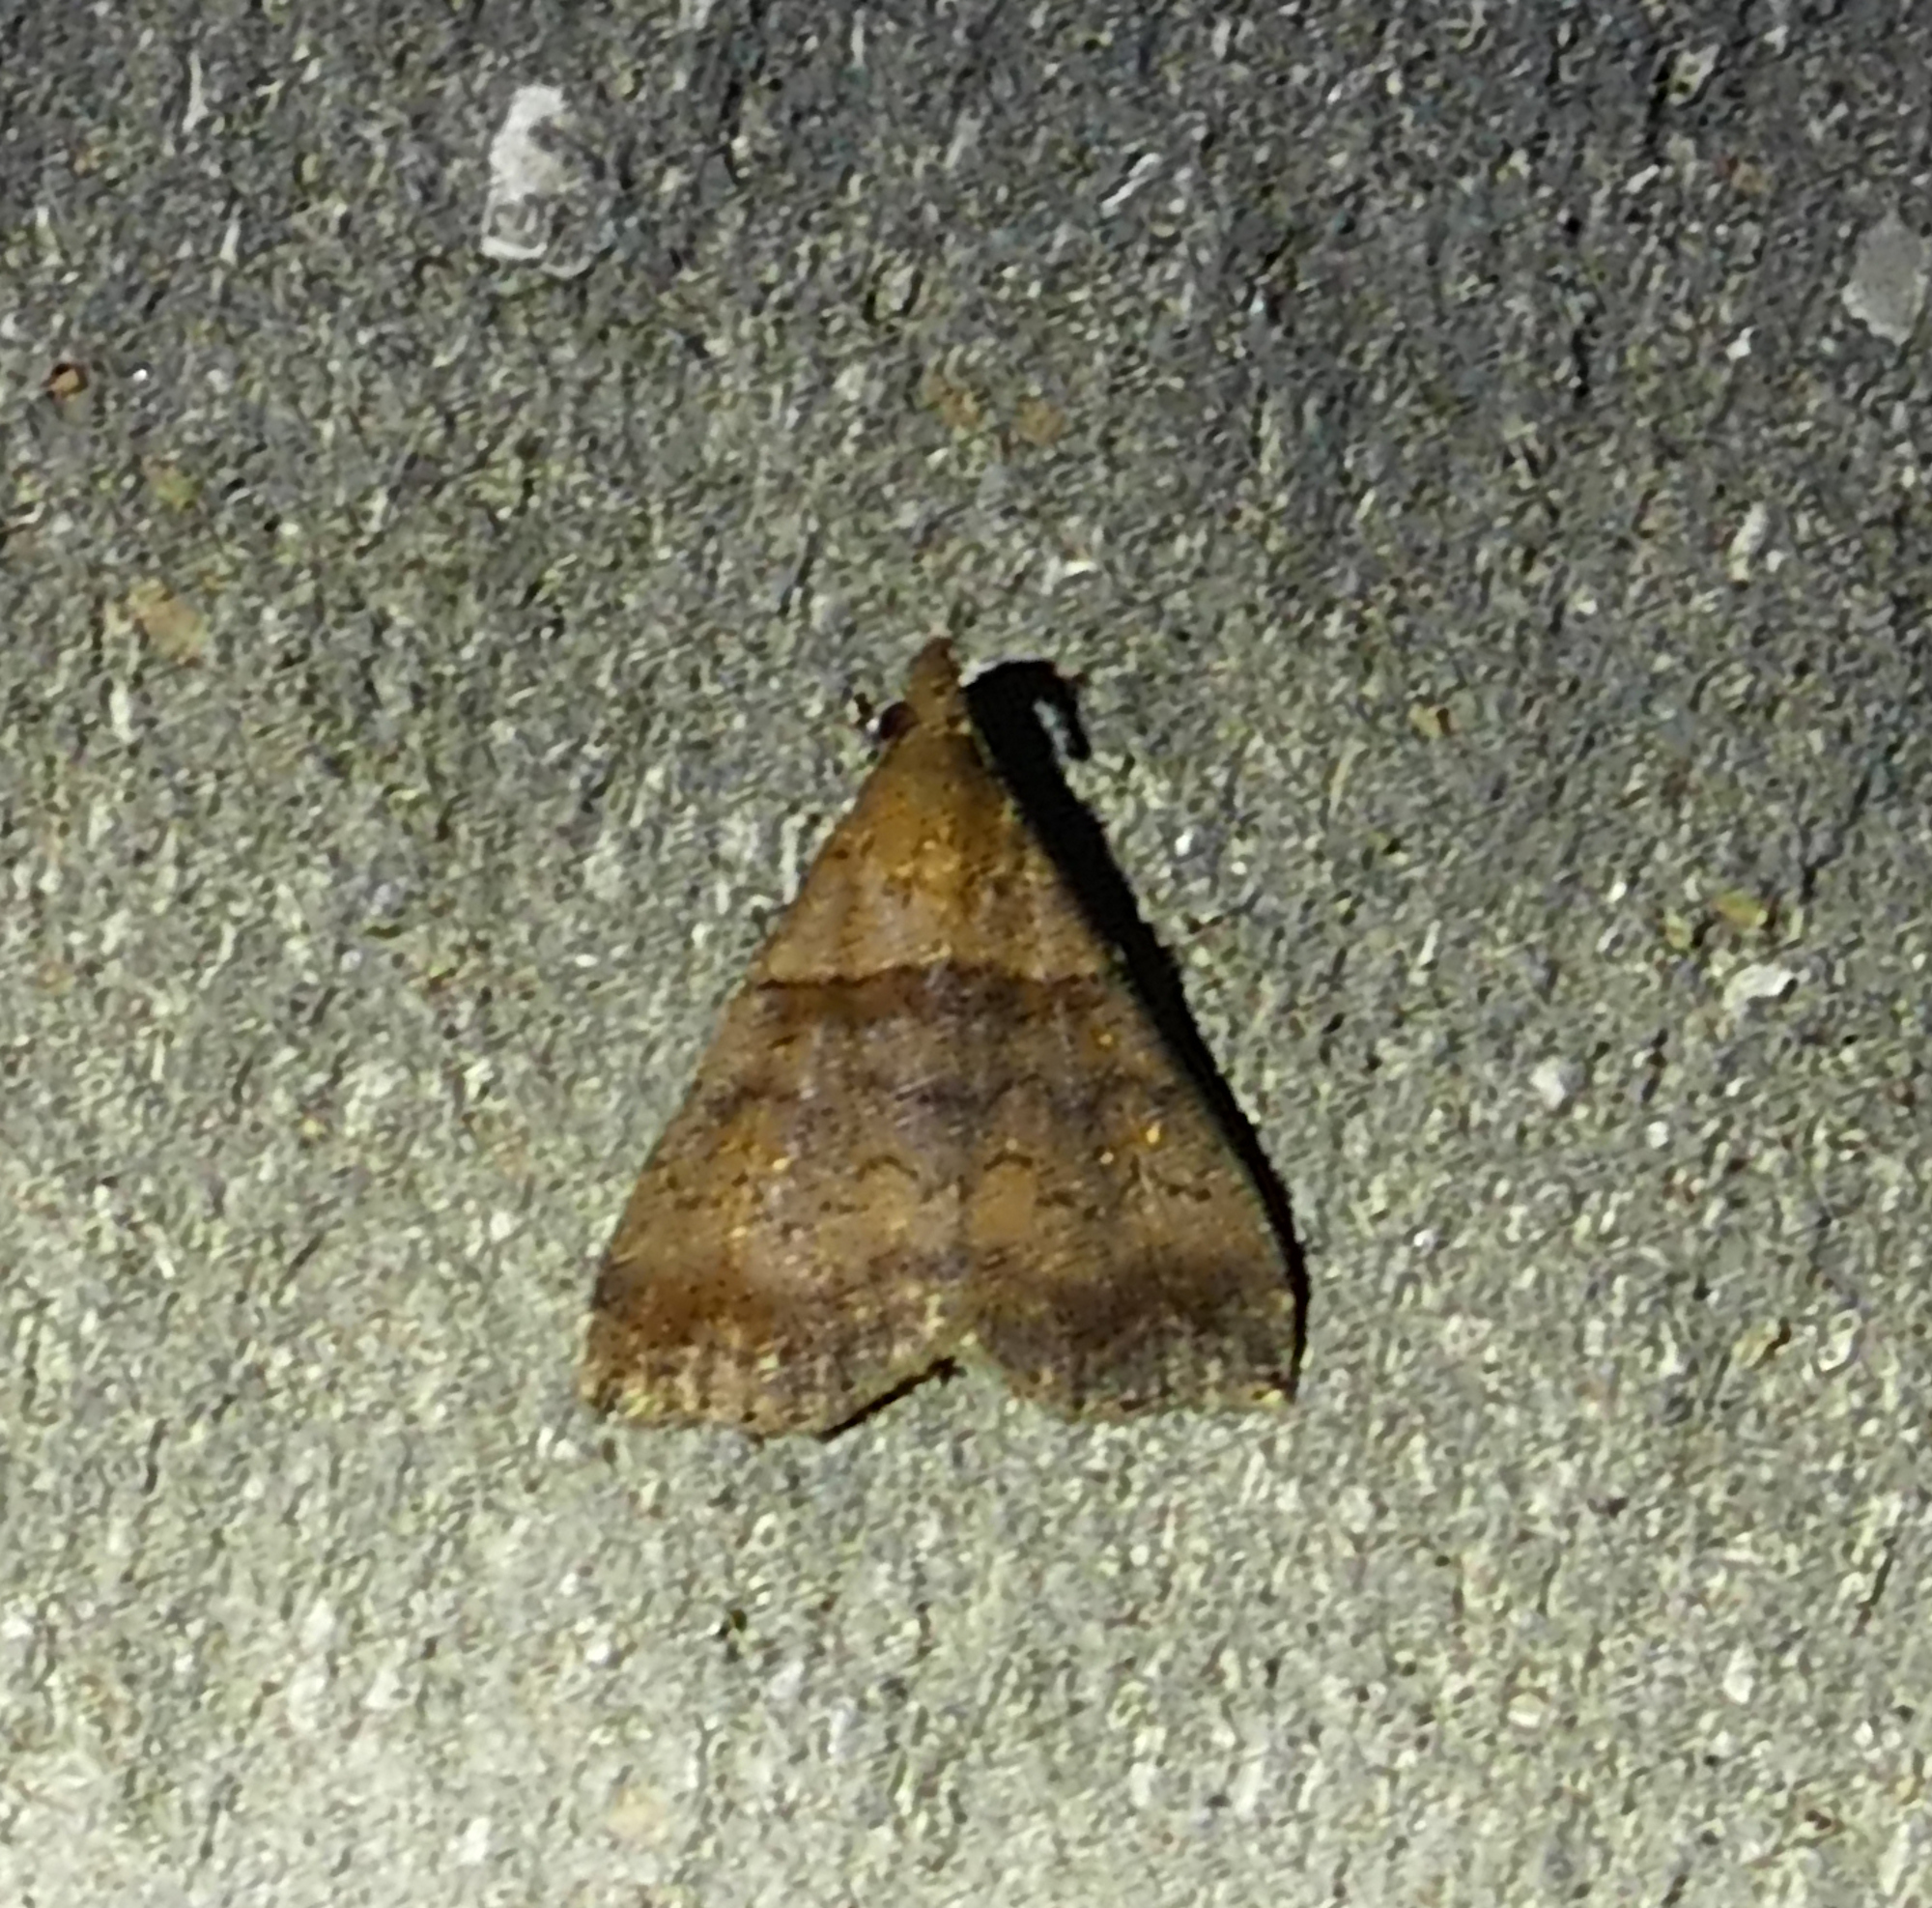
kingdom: Animalia
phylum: Arthropoda
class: Insecta
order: Lepidoptera
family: Erebidae
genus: Lascoria
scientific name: Lascoria ambigualis
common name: Ambiguous moth
